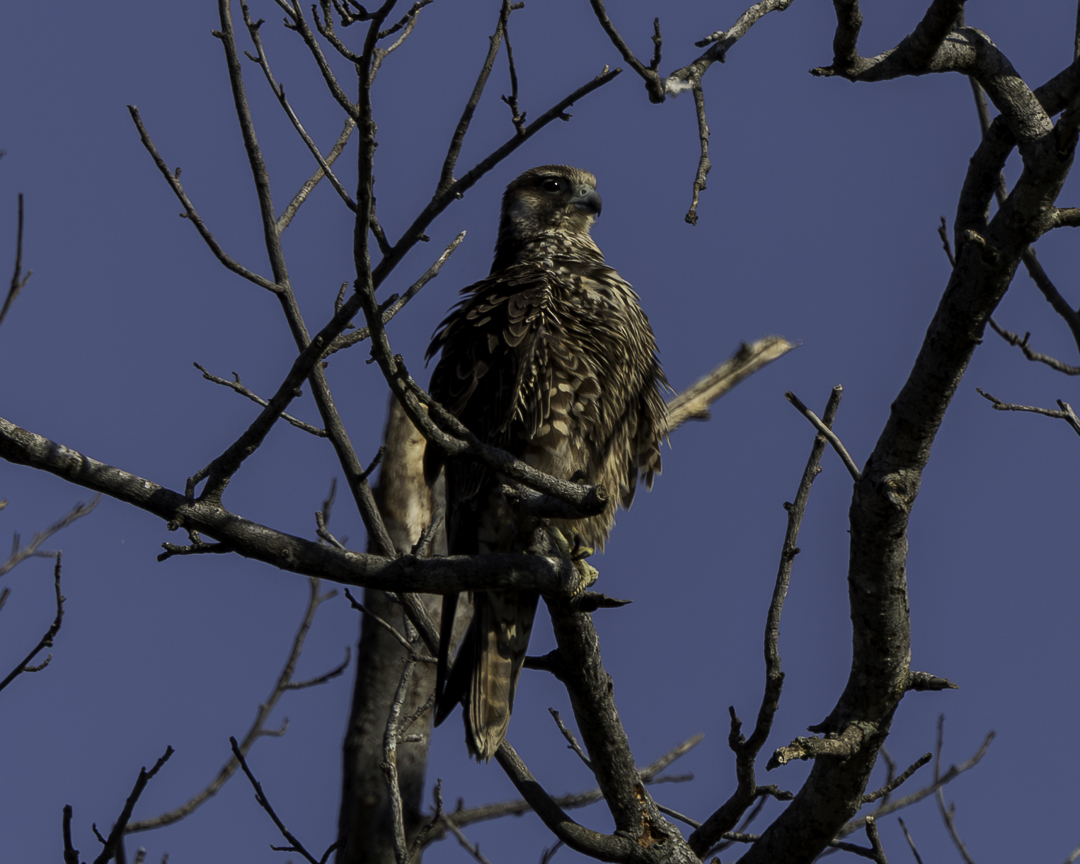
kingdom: Animalia
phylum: Chordata
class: Aves
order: Falconiformes
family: Falconidae
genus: Falco
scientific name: Falco peregrinus
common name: Peregrine falcon
